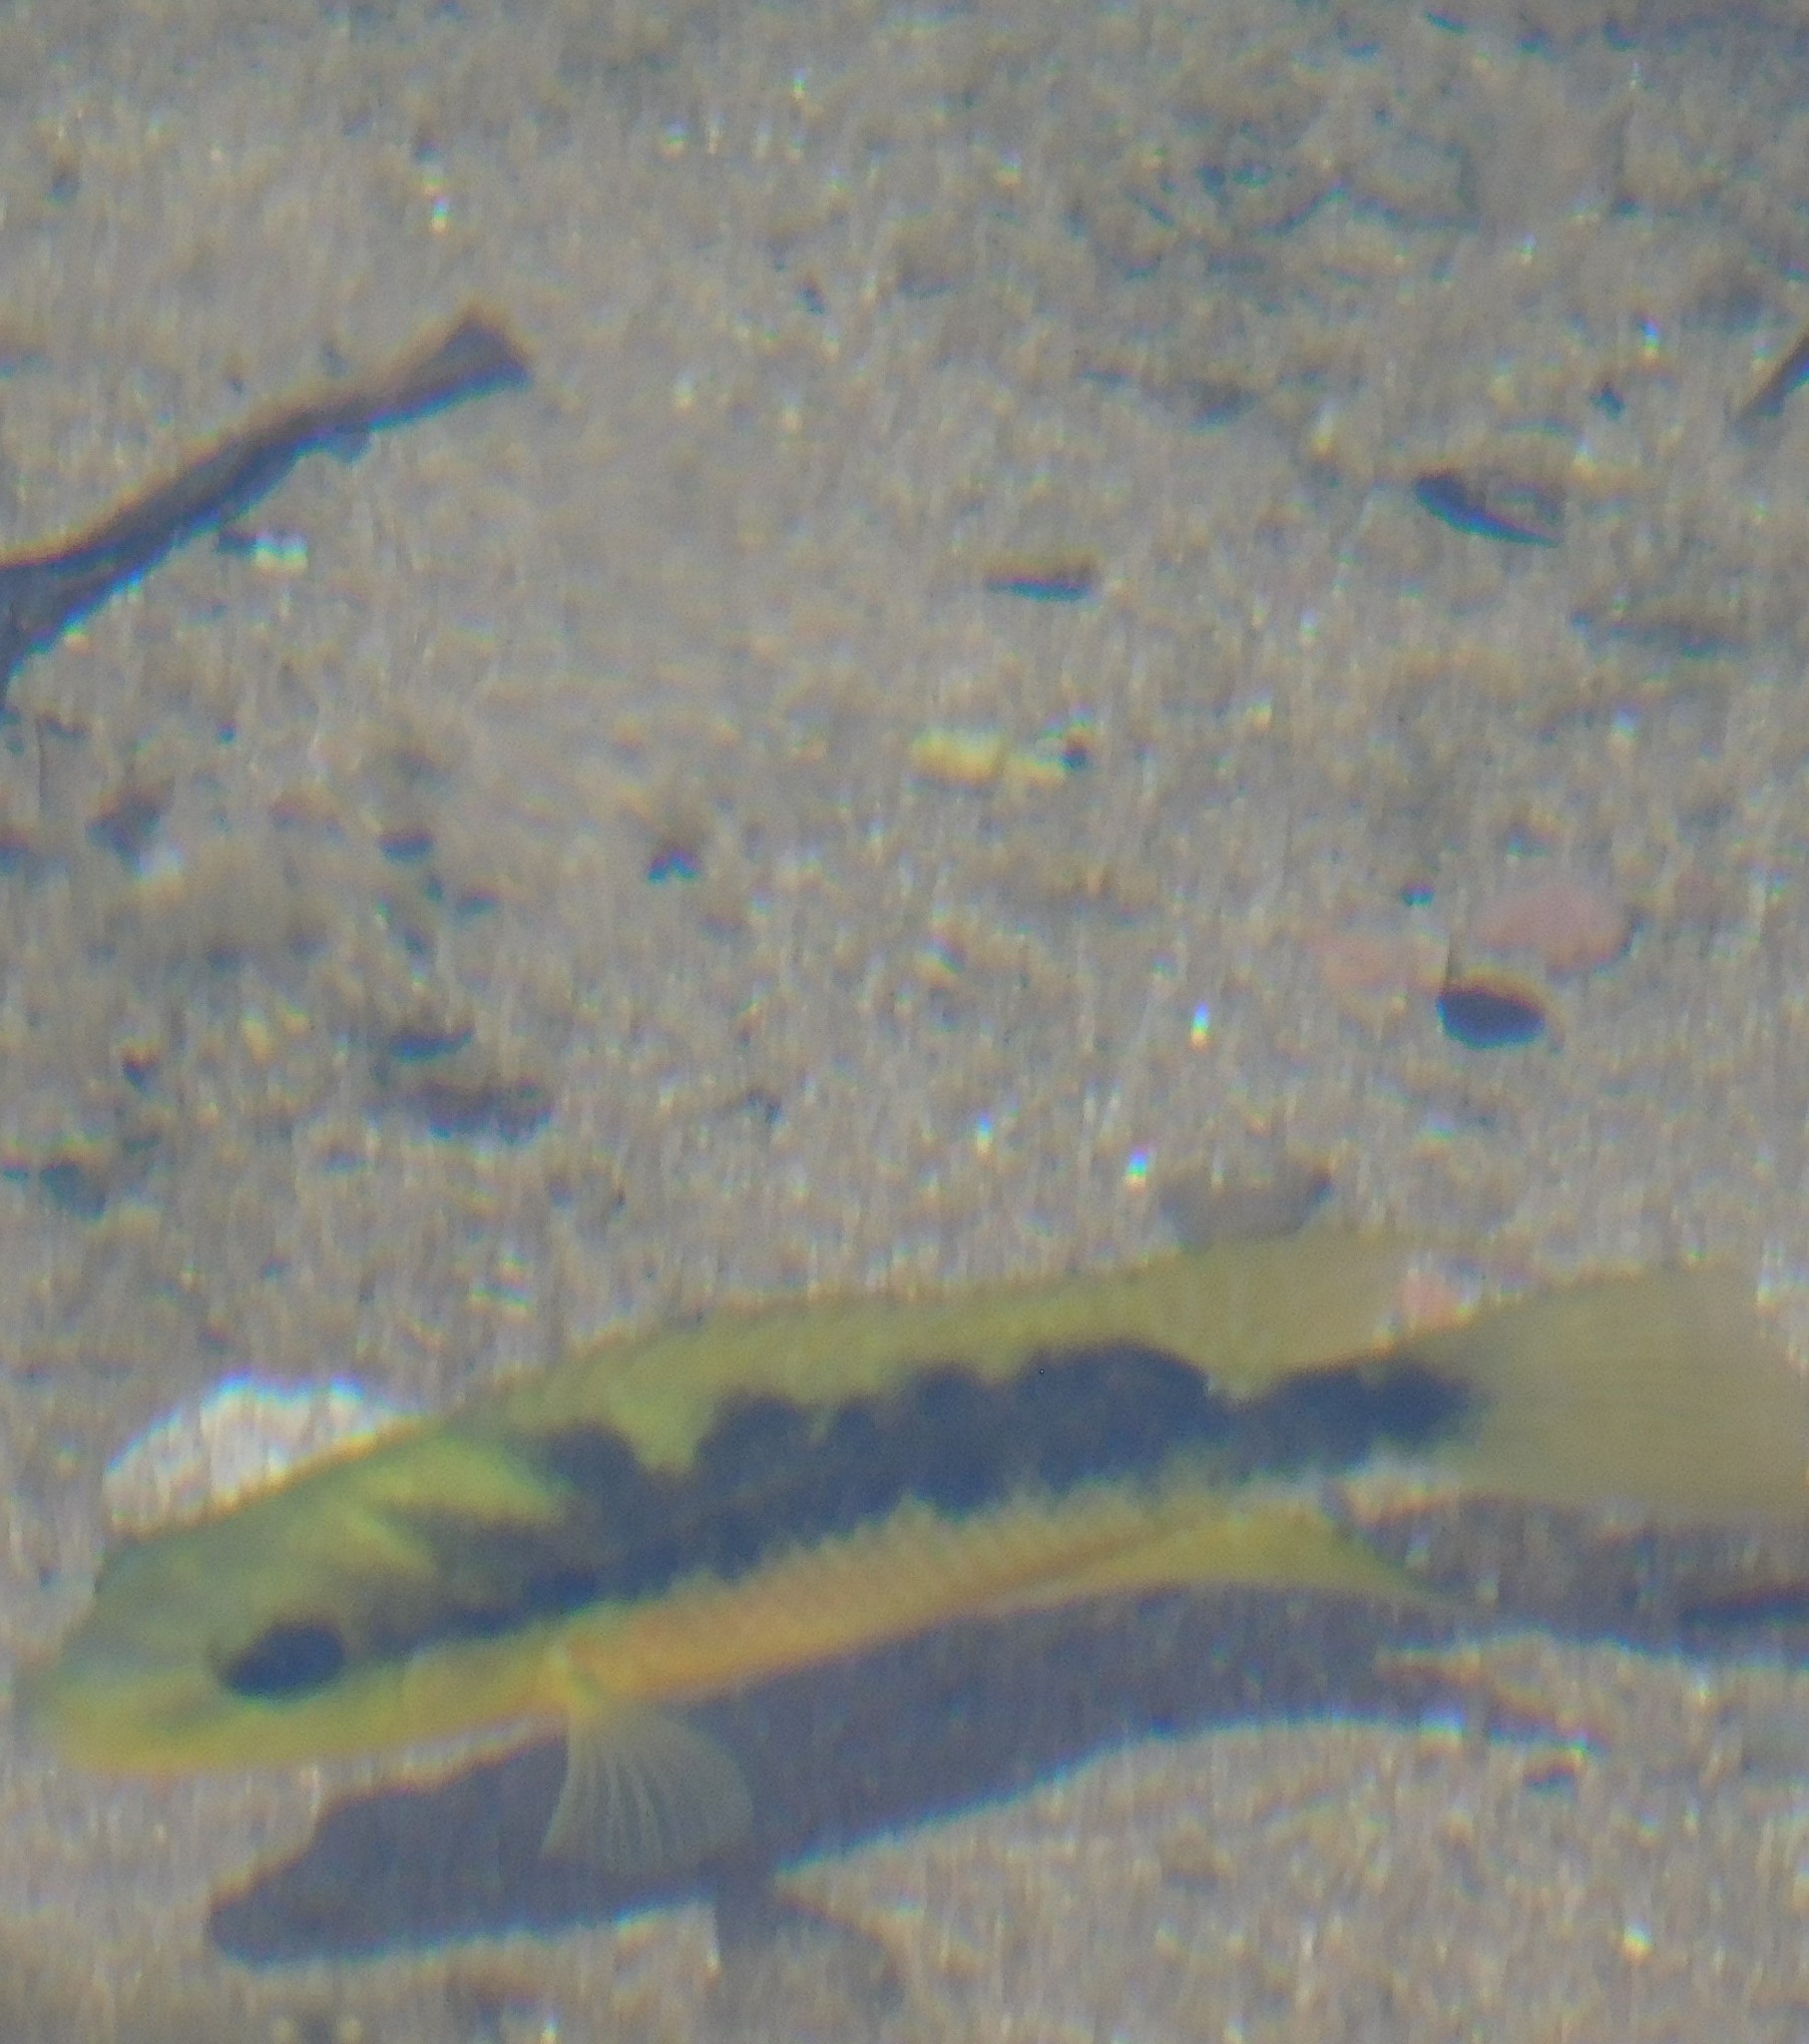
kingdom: Animalia
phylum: Chordata
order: Perciformes
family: Cichlidae
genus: Cichlasoma
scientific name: Cichlasoma istlanum
